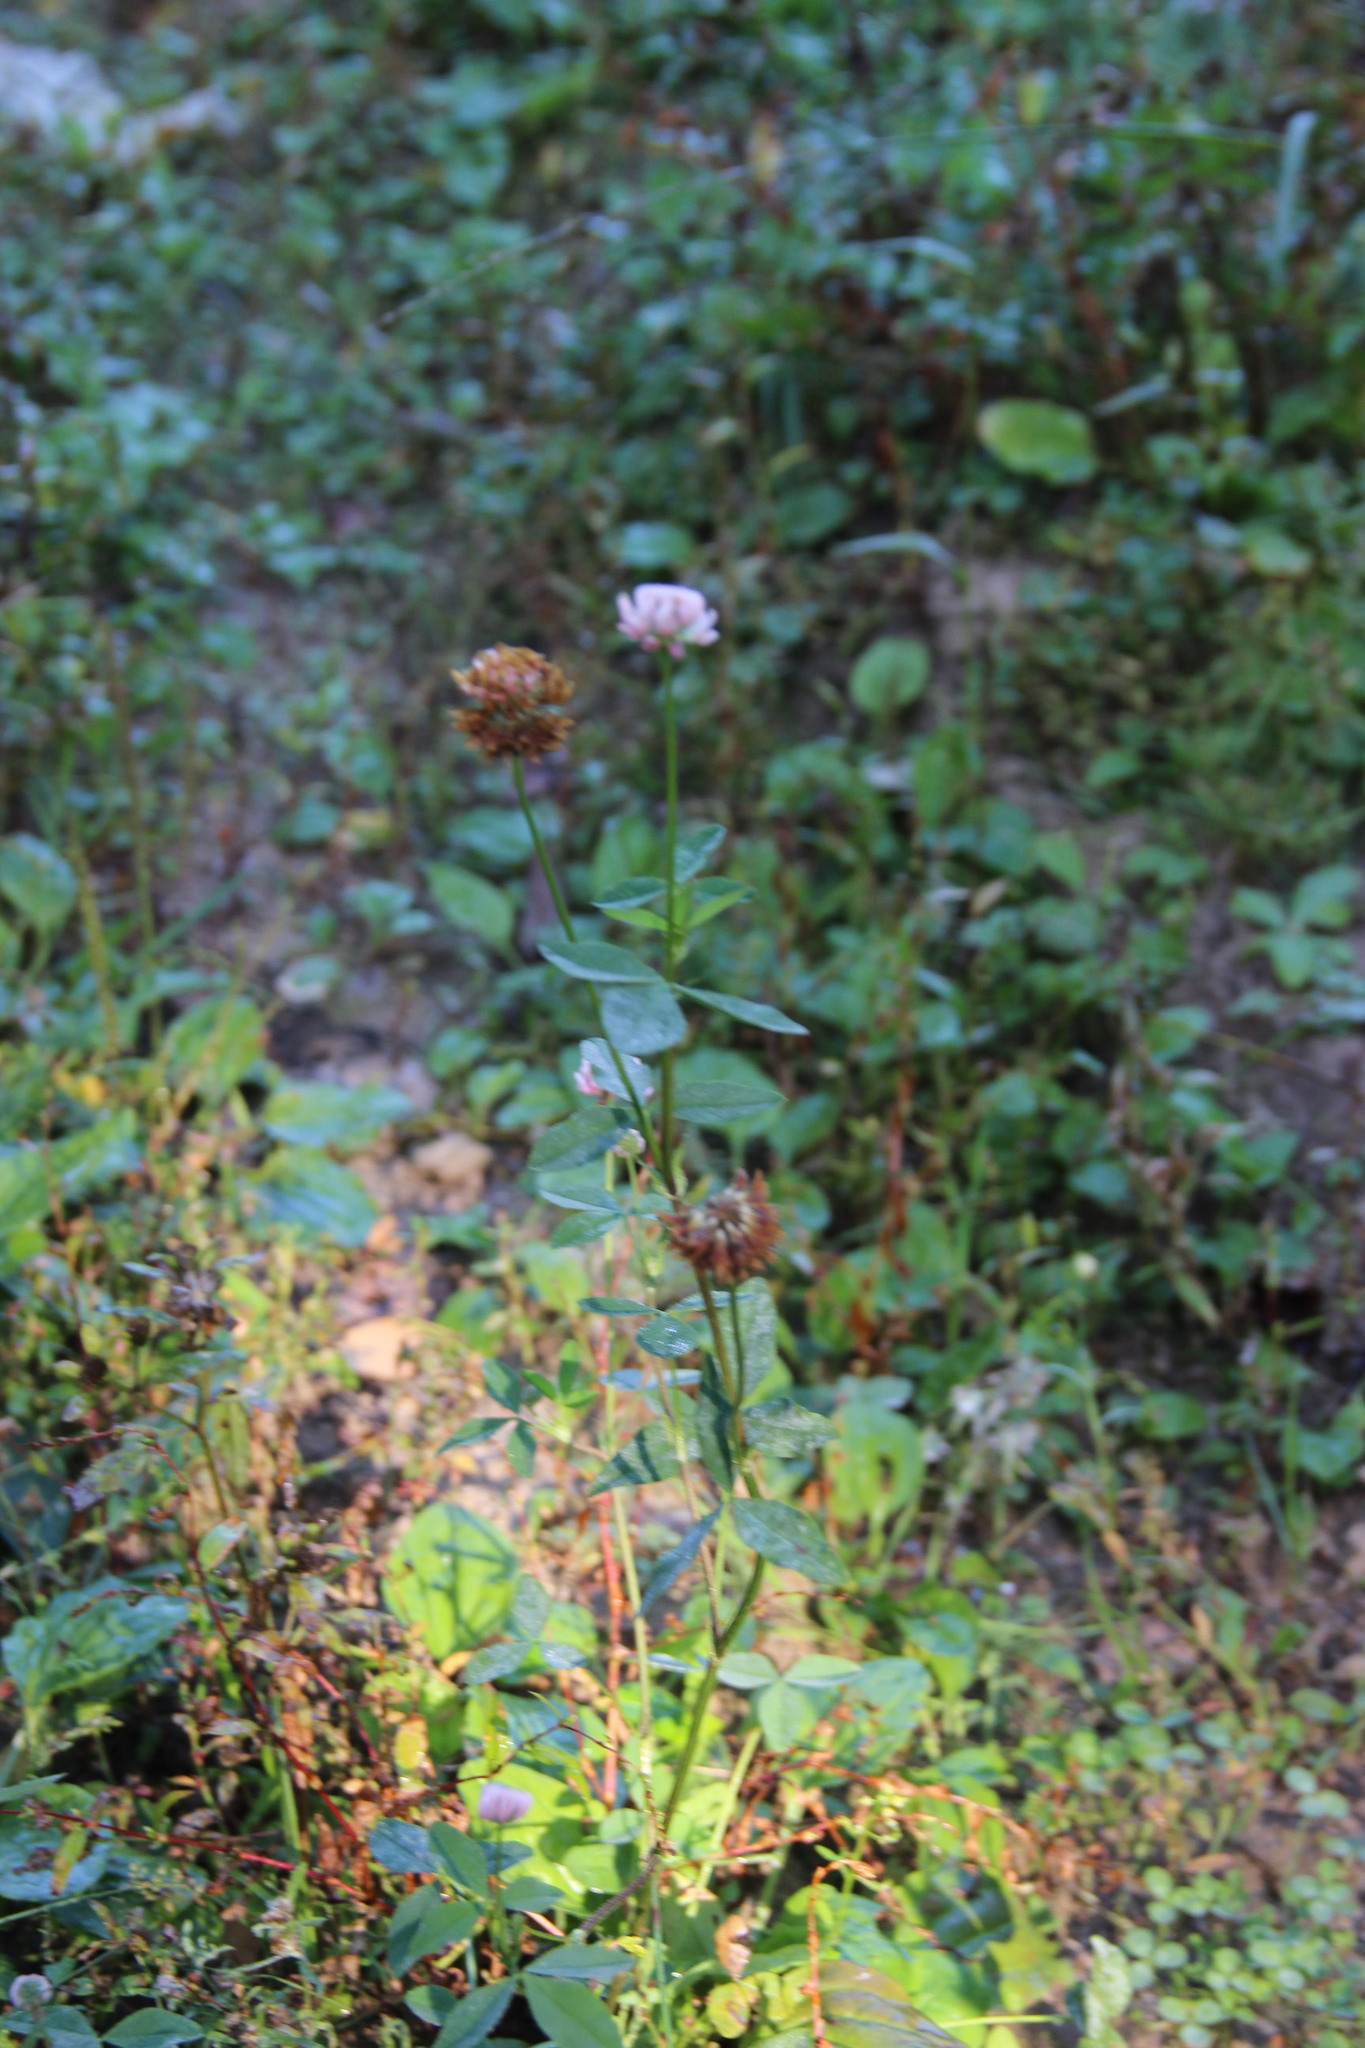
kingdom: Plantae
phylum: Tracheophyta
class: Magnoliopsida
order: Fabales
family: Fabaceae
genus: Trifolium
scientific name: Trifolium hybridum
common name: Alsike clover
